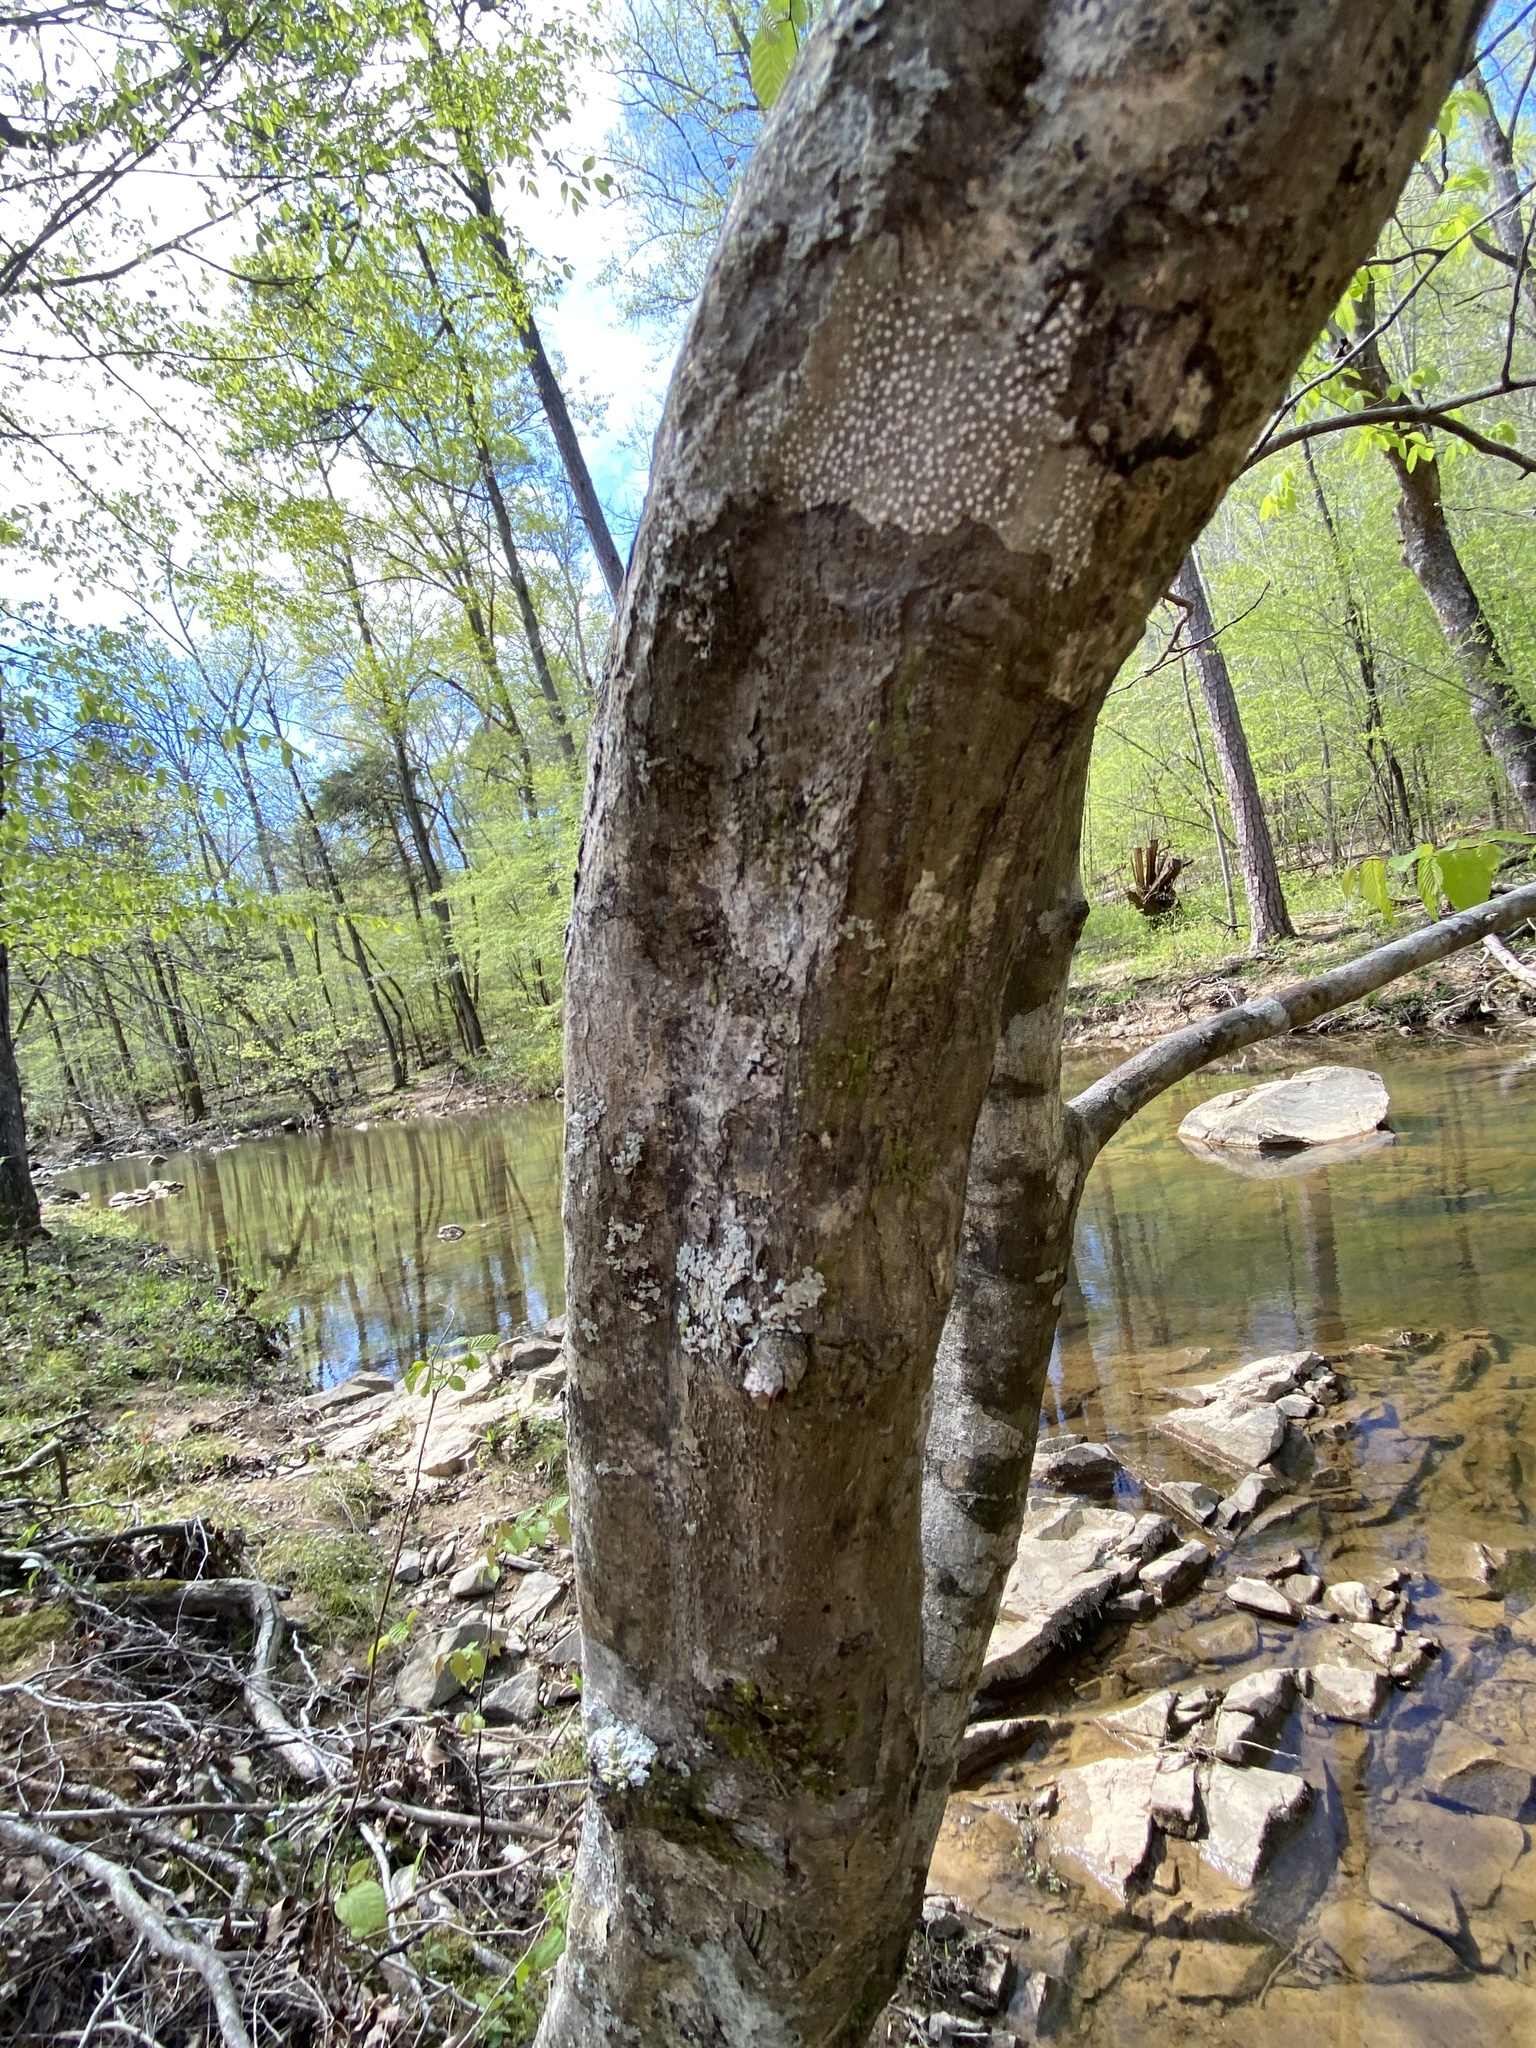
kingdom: Plantae
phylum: Tracheophyta
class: Magnoliopsida
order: Fagales
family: Betulaceae
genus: Carpinus
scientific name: Carpinus caroliniana
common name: American hornbeam
